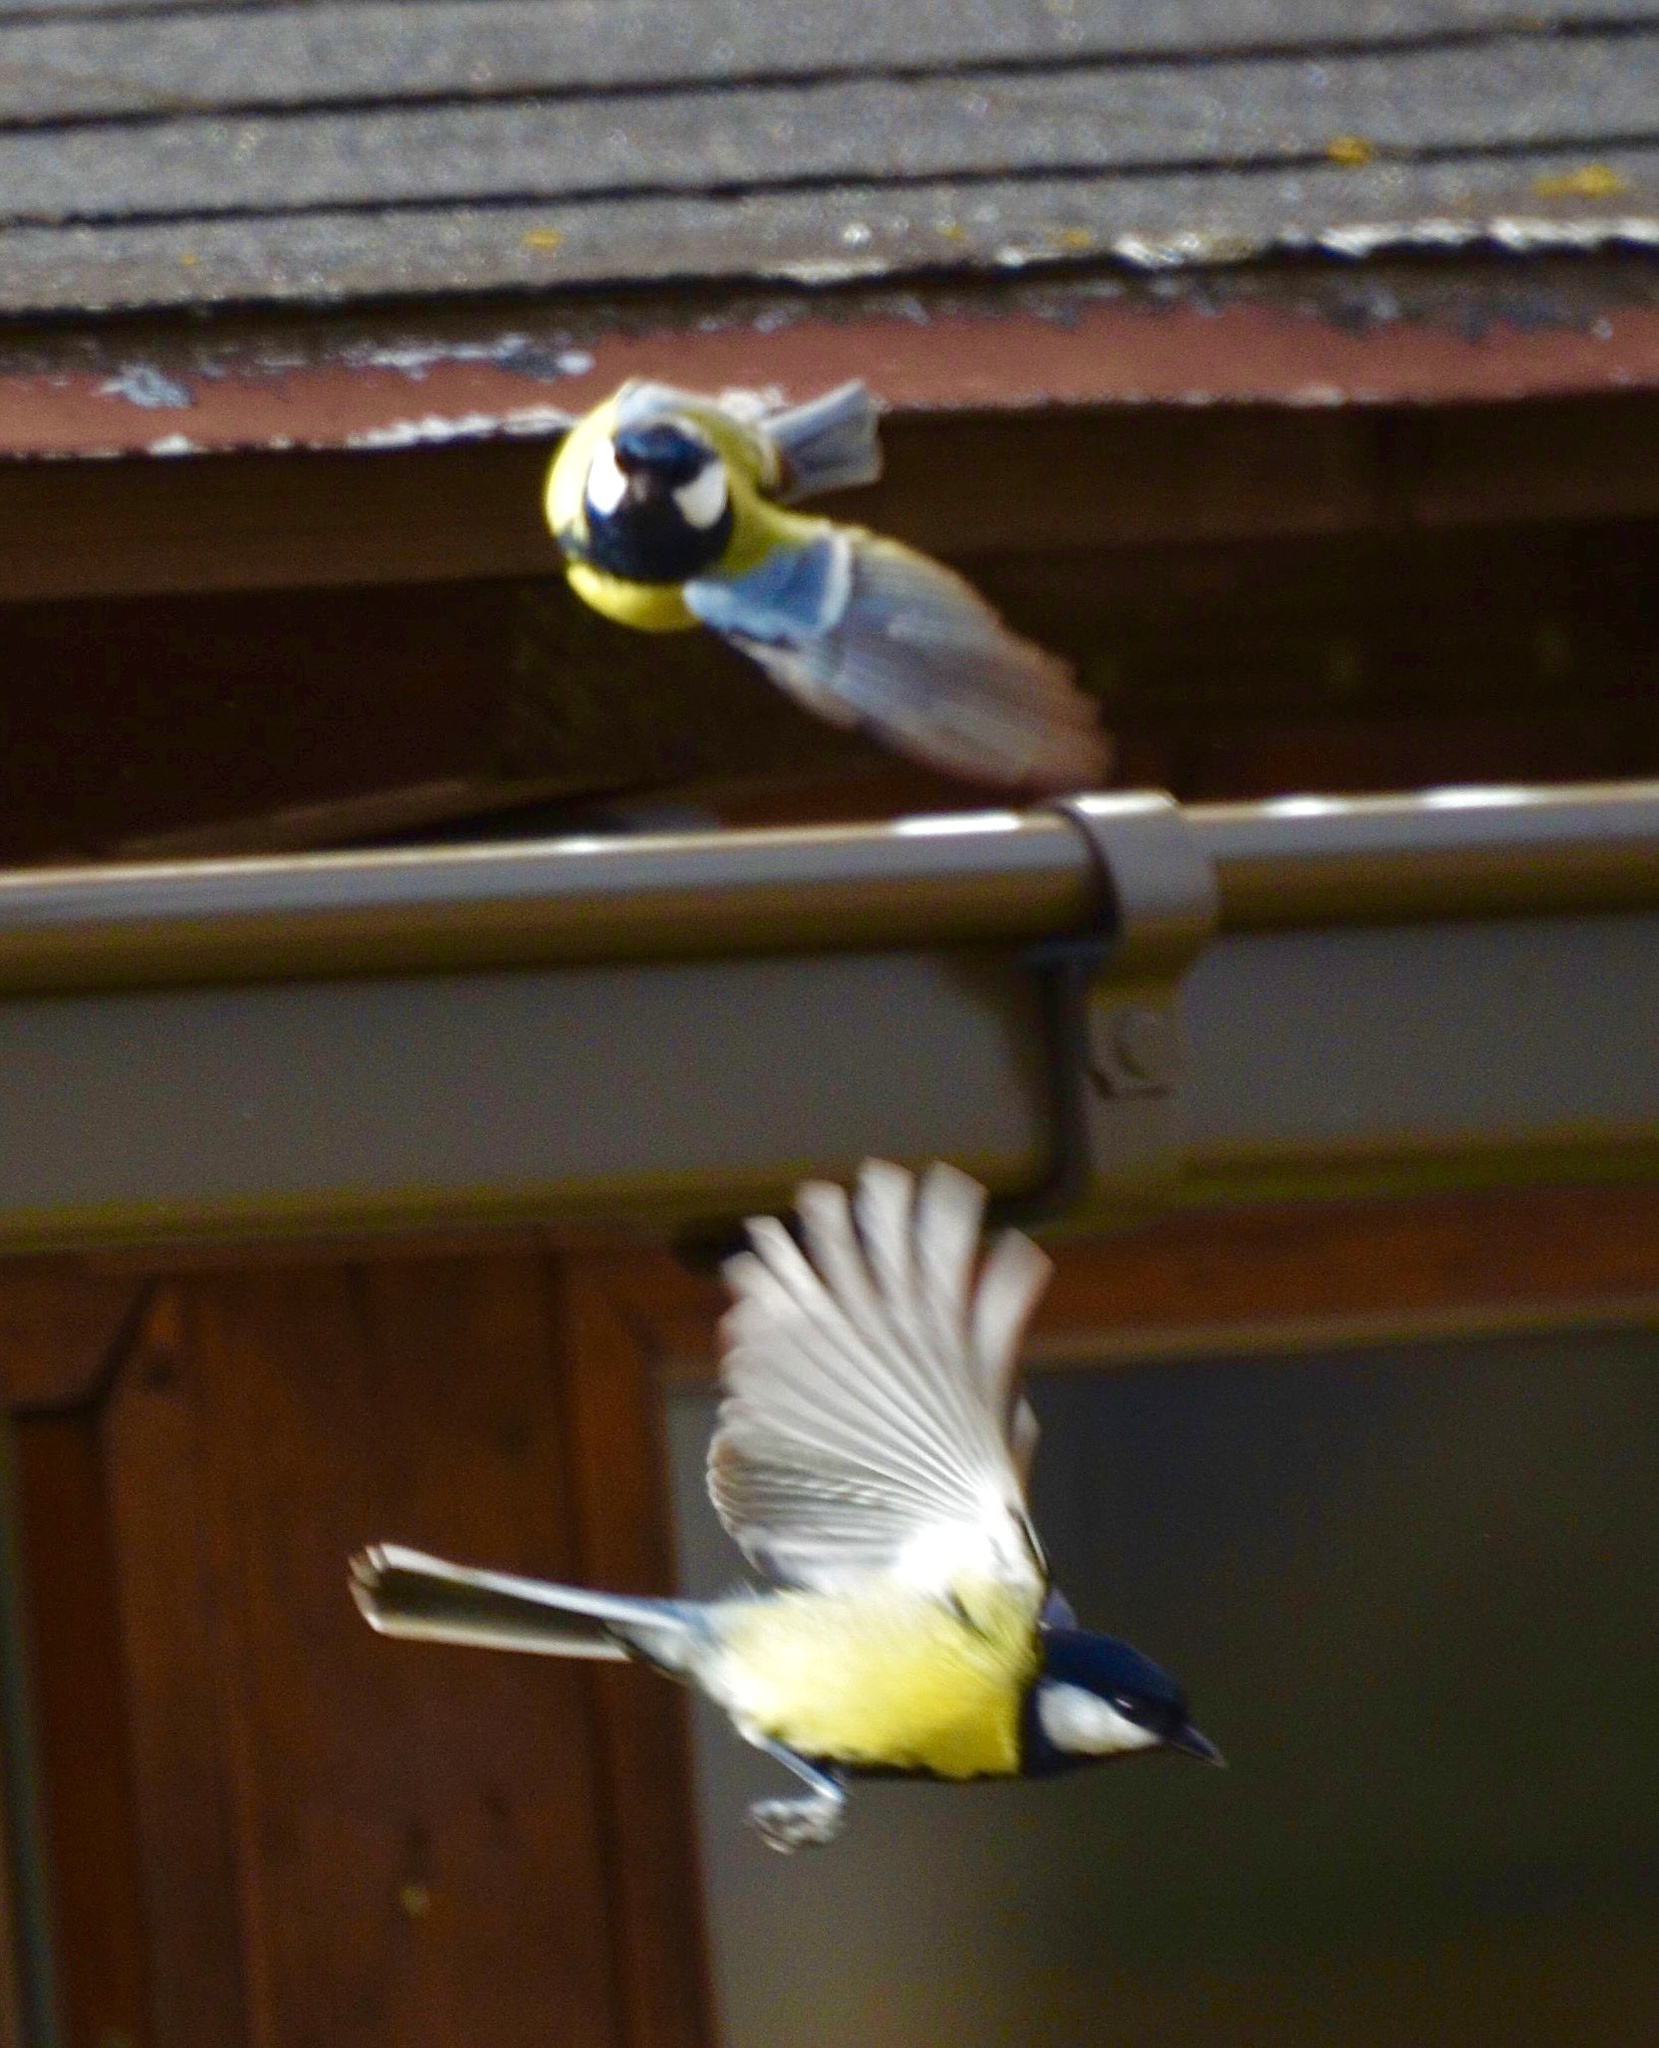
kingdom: Animalia
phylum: Chordata
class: Aves
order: Passeriformes
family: Paridae
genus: Parus
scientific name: Parus major
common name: Great tit
